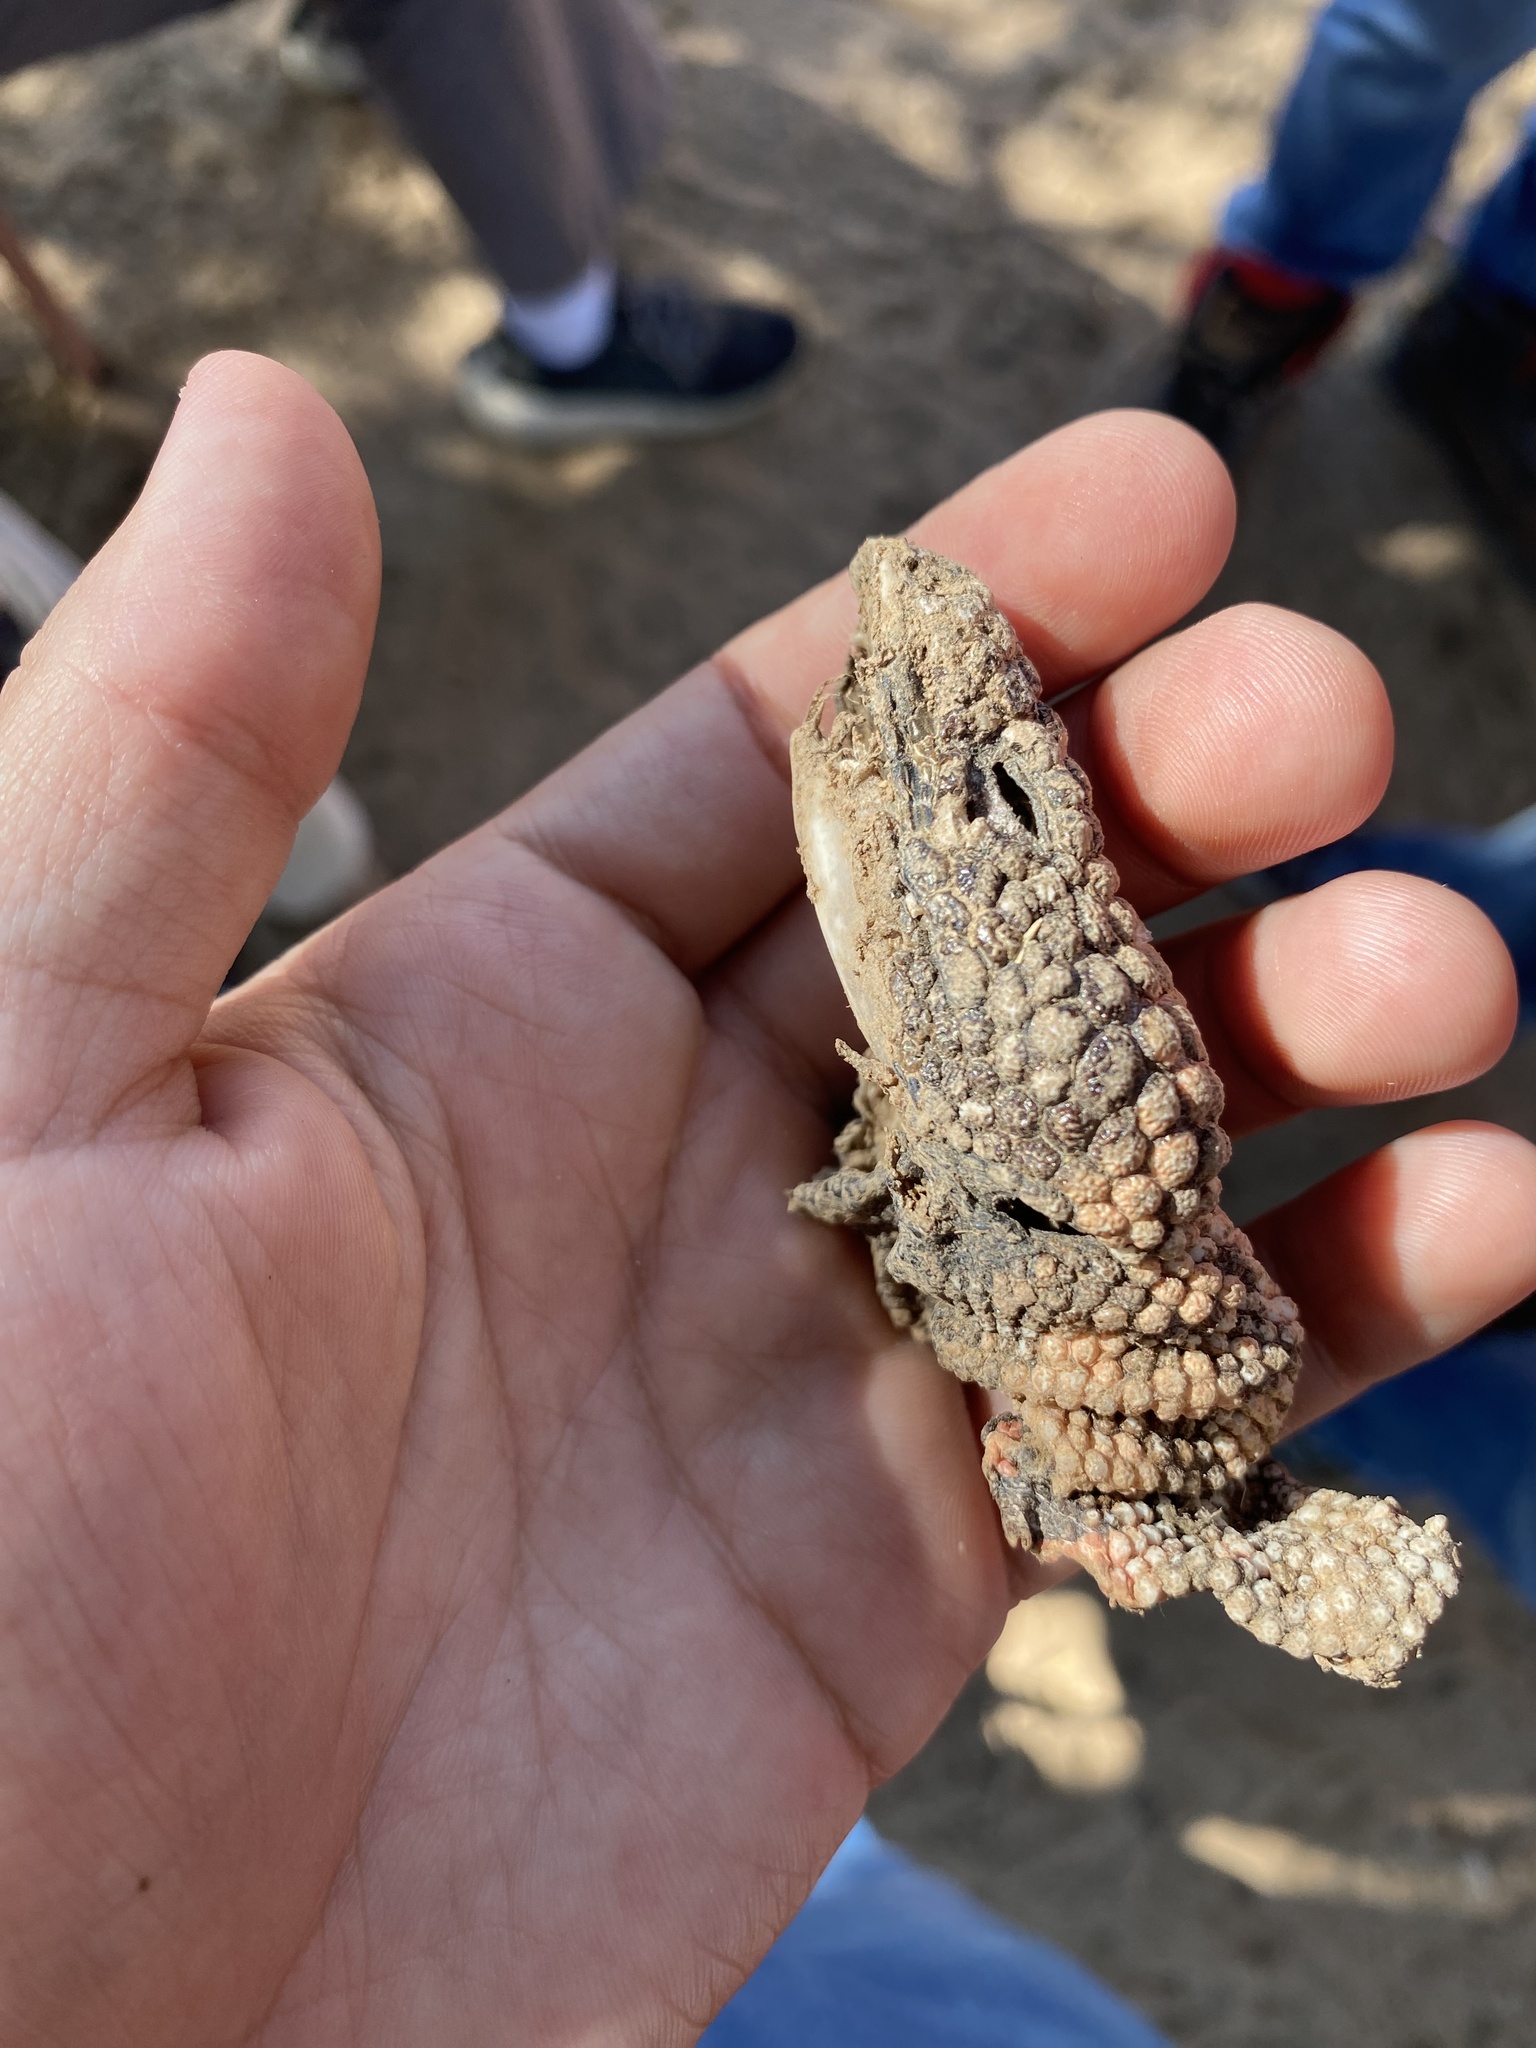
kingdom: Animalia
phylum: Chordata
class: Squamata
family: Helodermatidae
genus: Heloderma
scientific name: Heloderma suspectum
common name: Gila monster
